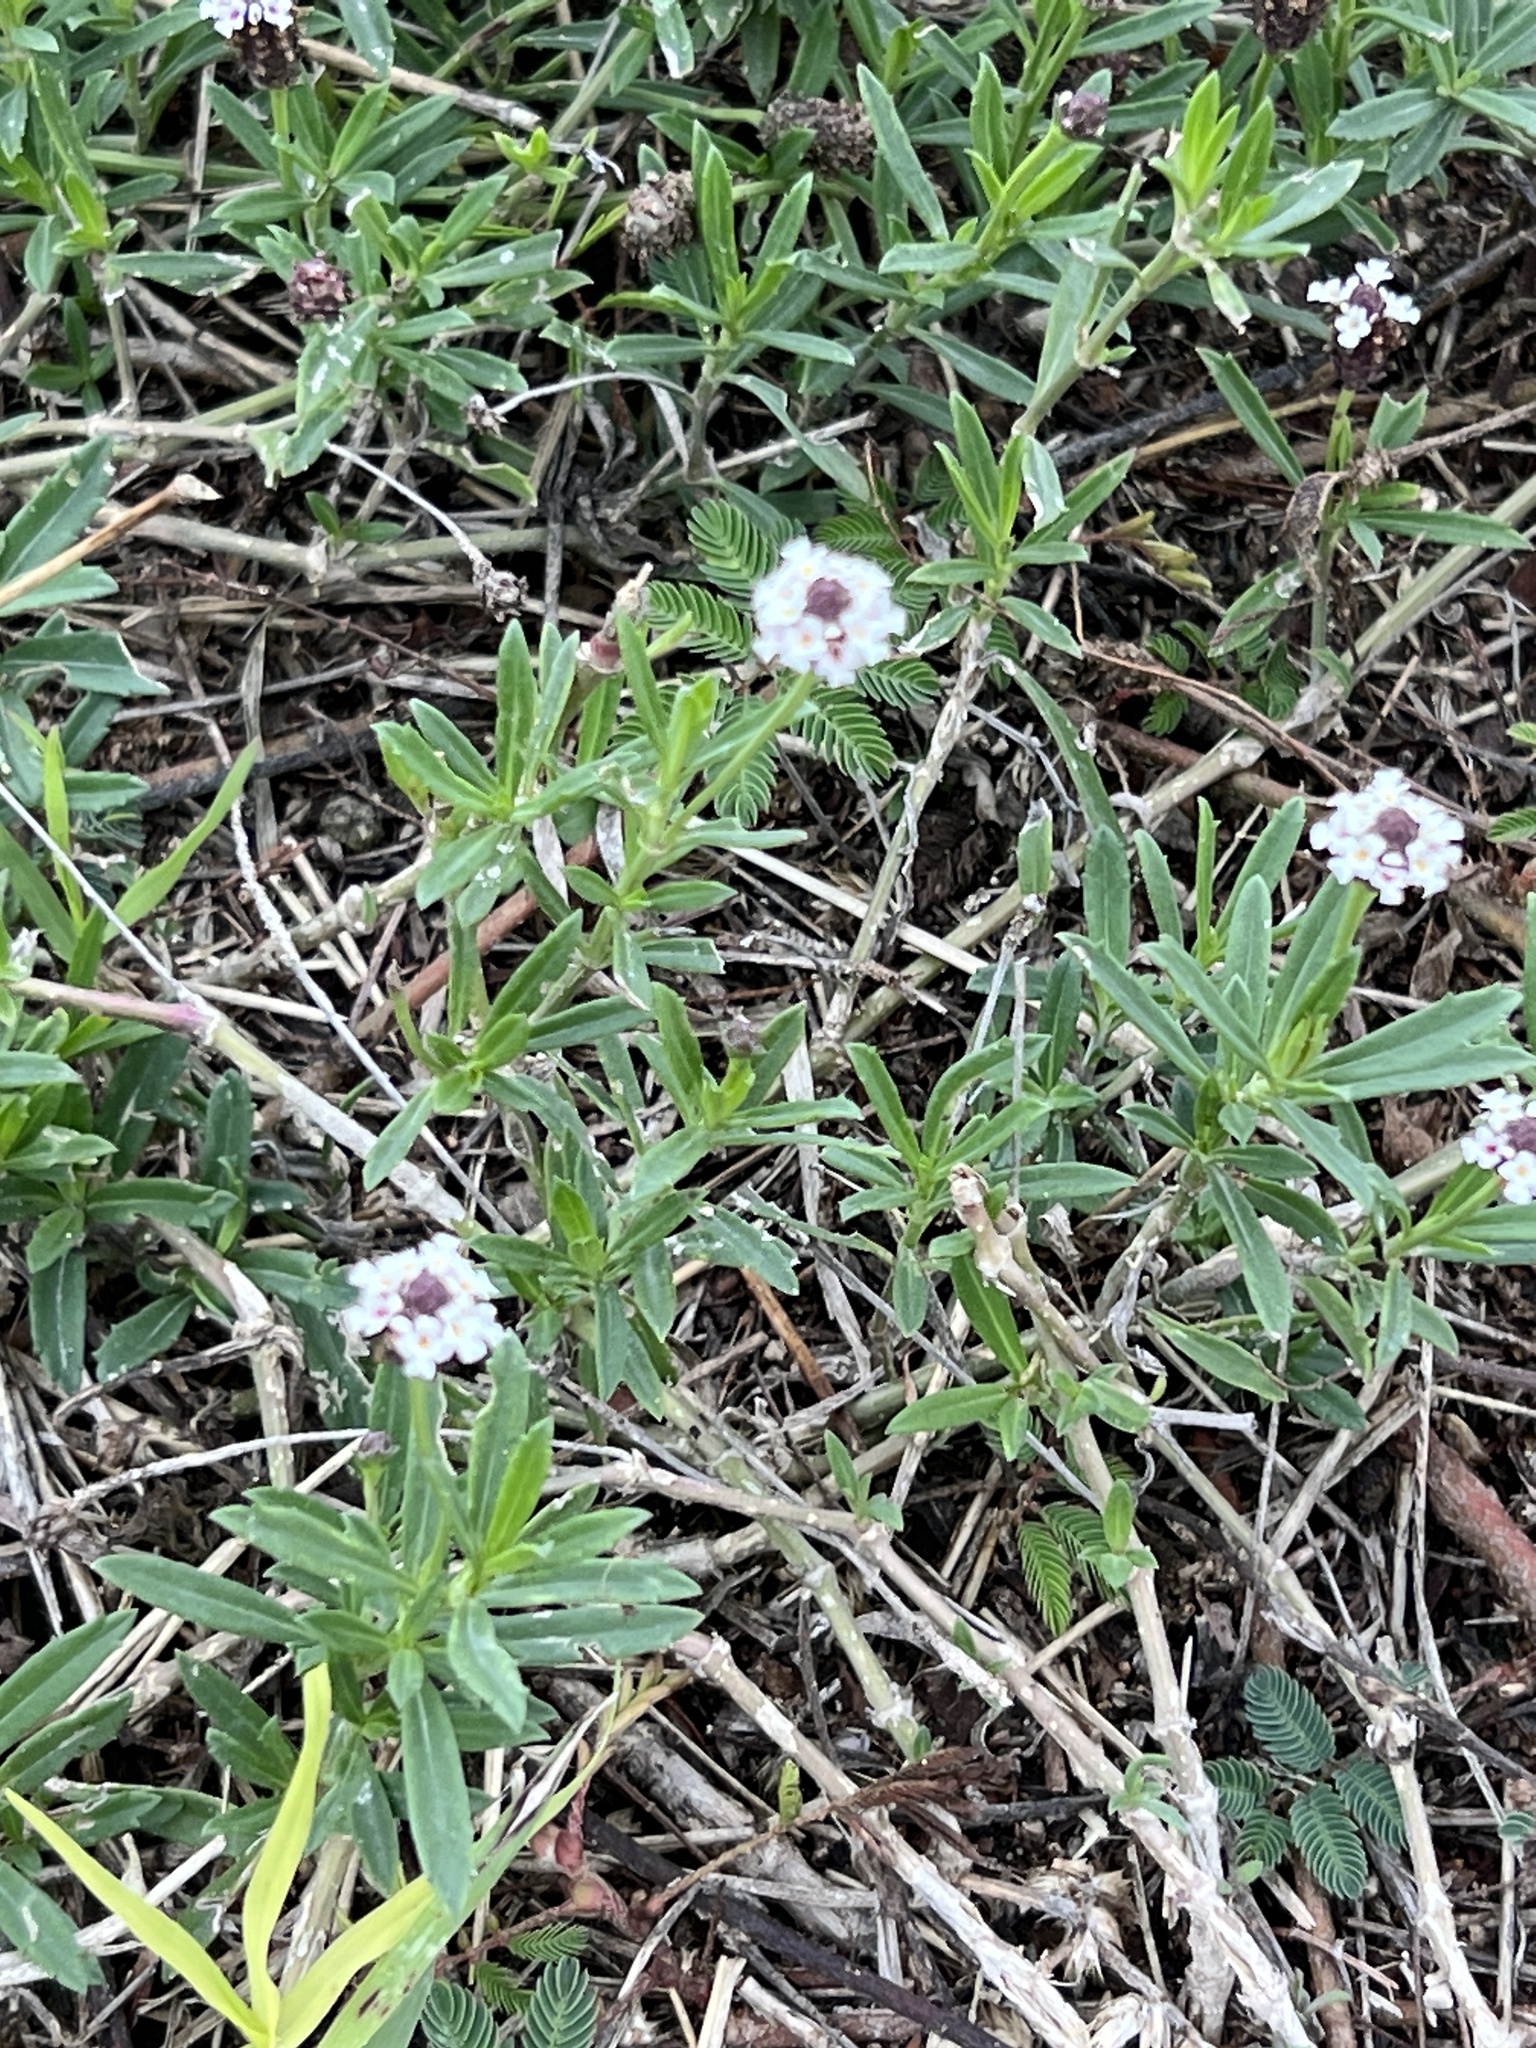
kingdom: Plantae
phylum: Tracheophyta
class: Magnoliopsida
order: Lamiales
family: Verbenaceae
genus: Phyla
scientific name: Phyla nodiflora
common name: Frogfruit
